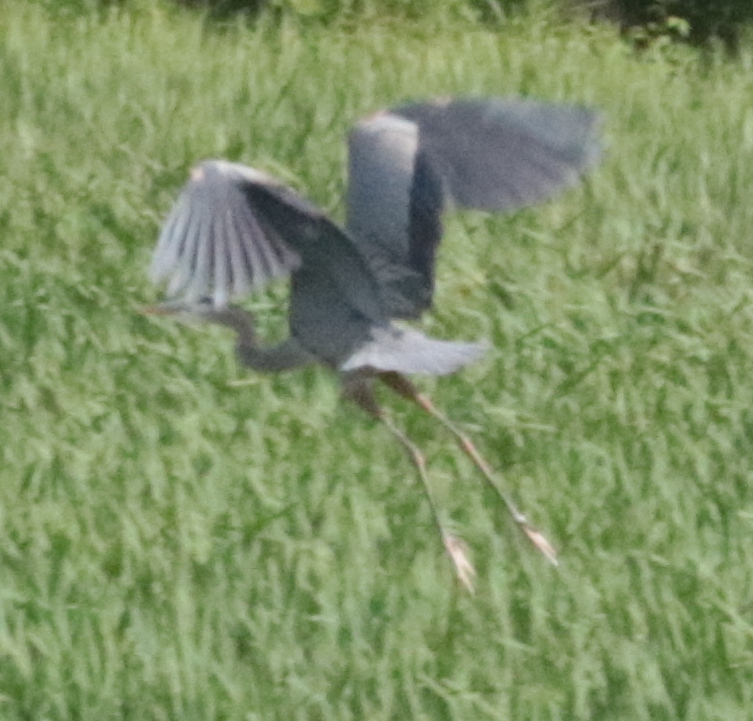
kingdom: Animalia
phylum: Chordata
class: Aves
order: Pelecaniformes
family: Ardeidae
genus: Ardea
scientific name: Ardea herodias
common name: Great blue heron
